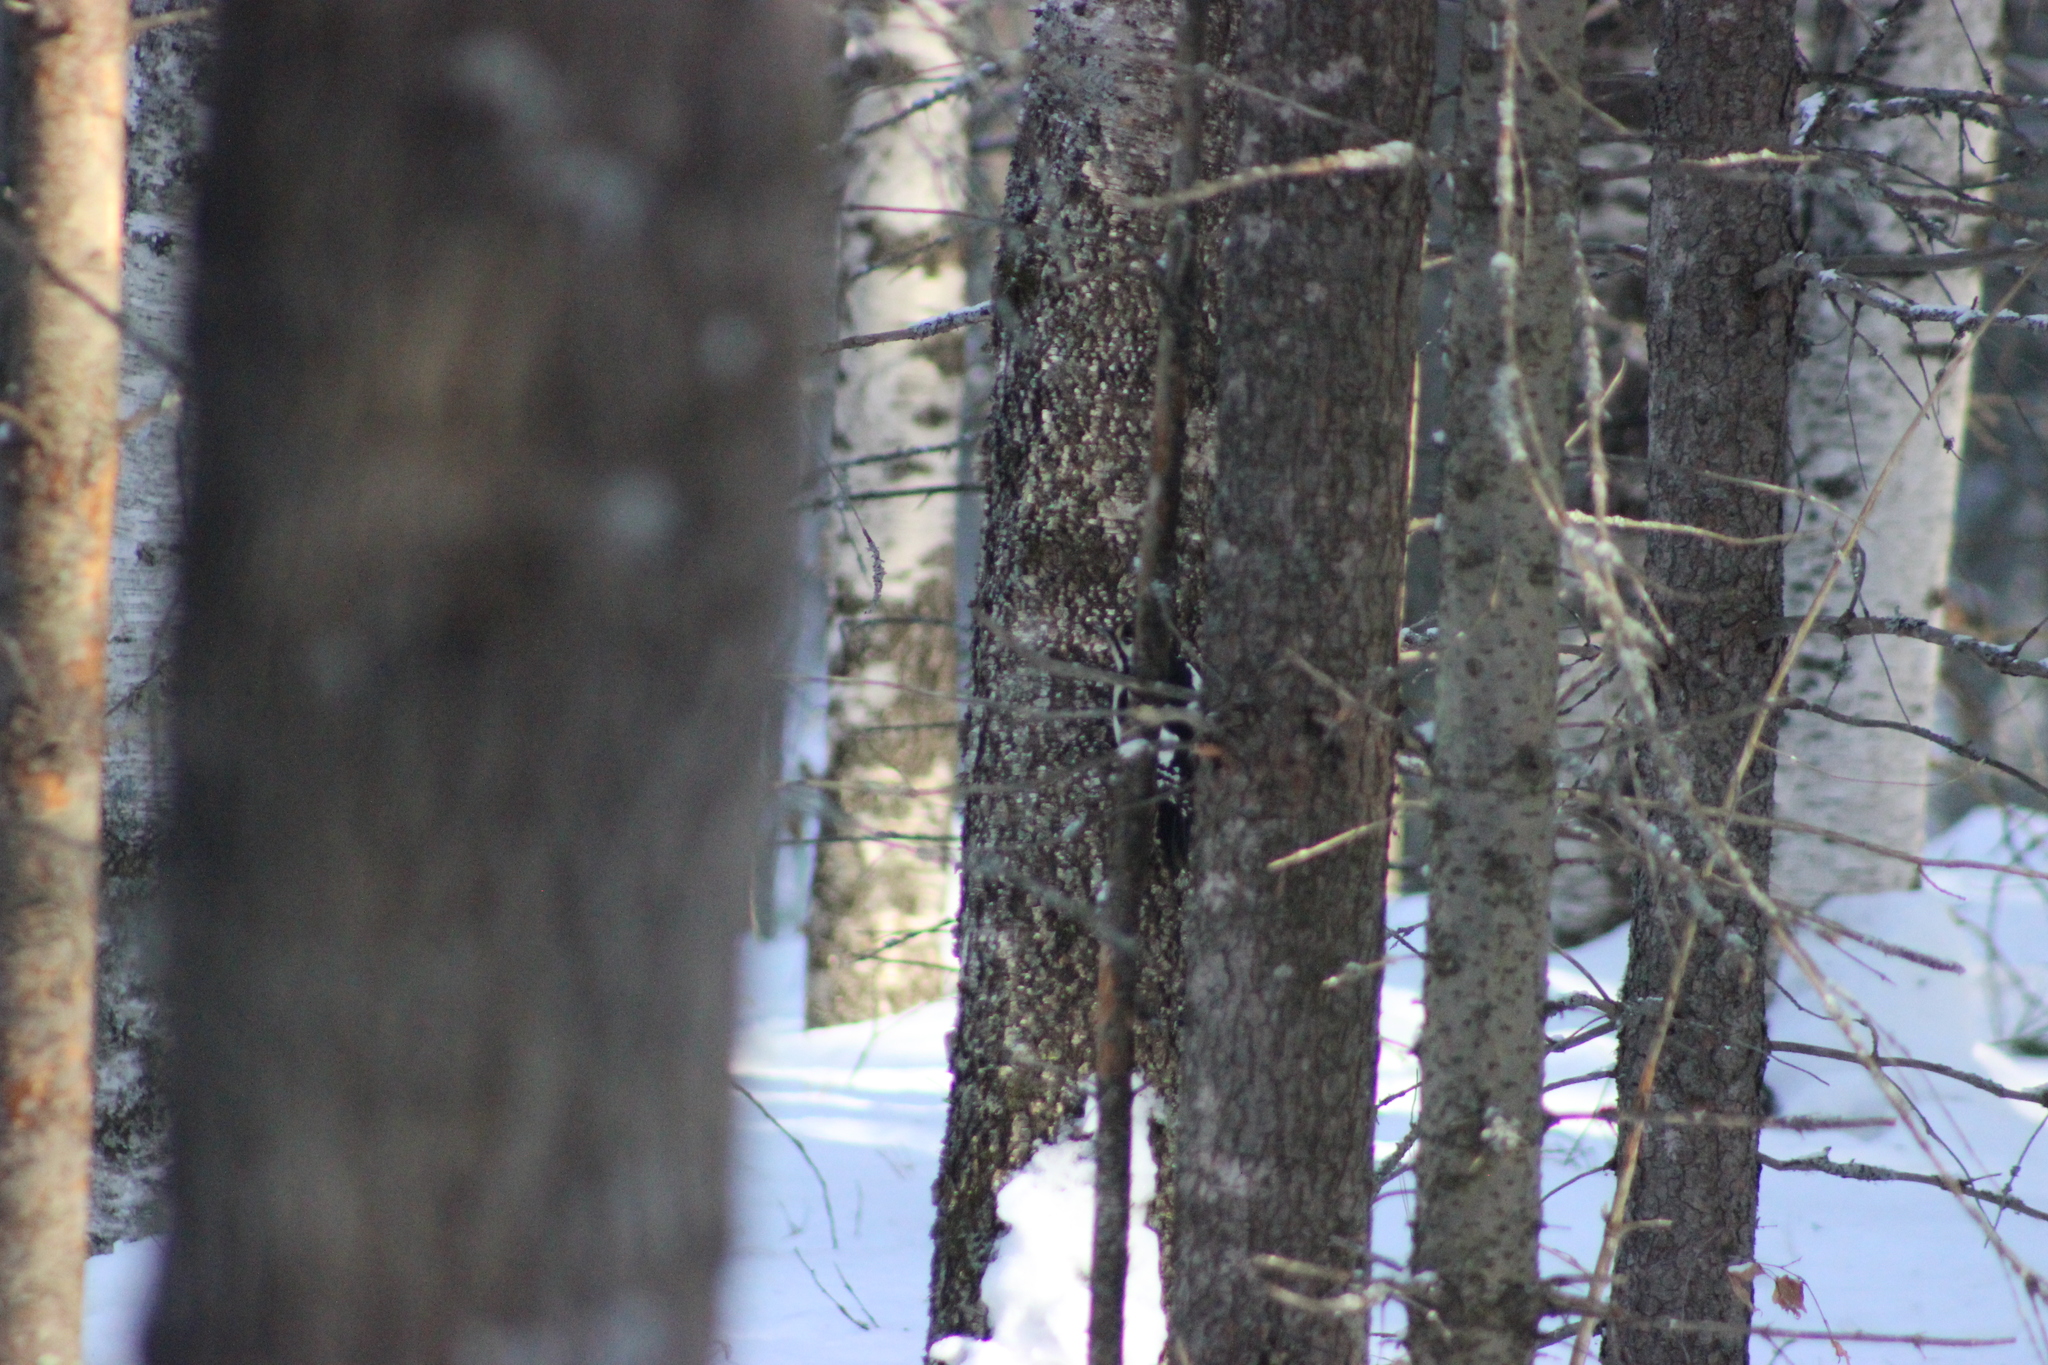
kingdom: Animalia
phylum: Chordata
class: Aves
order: Piciformes
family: Picidae
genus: Dendrocopos
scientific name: Dendrocopos major
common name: Great spotted woodpecker
